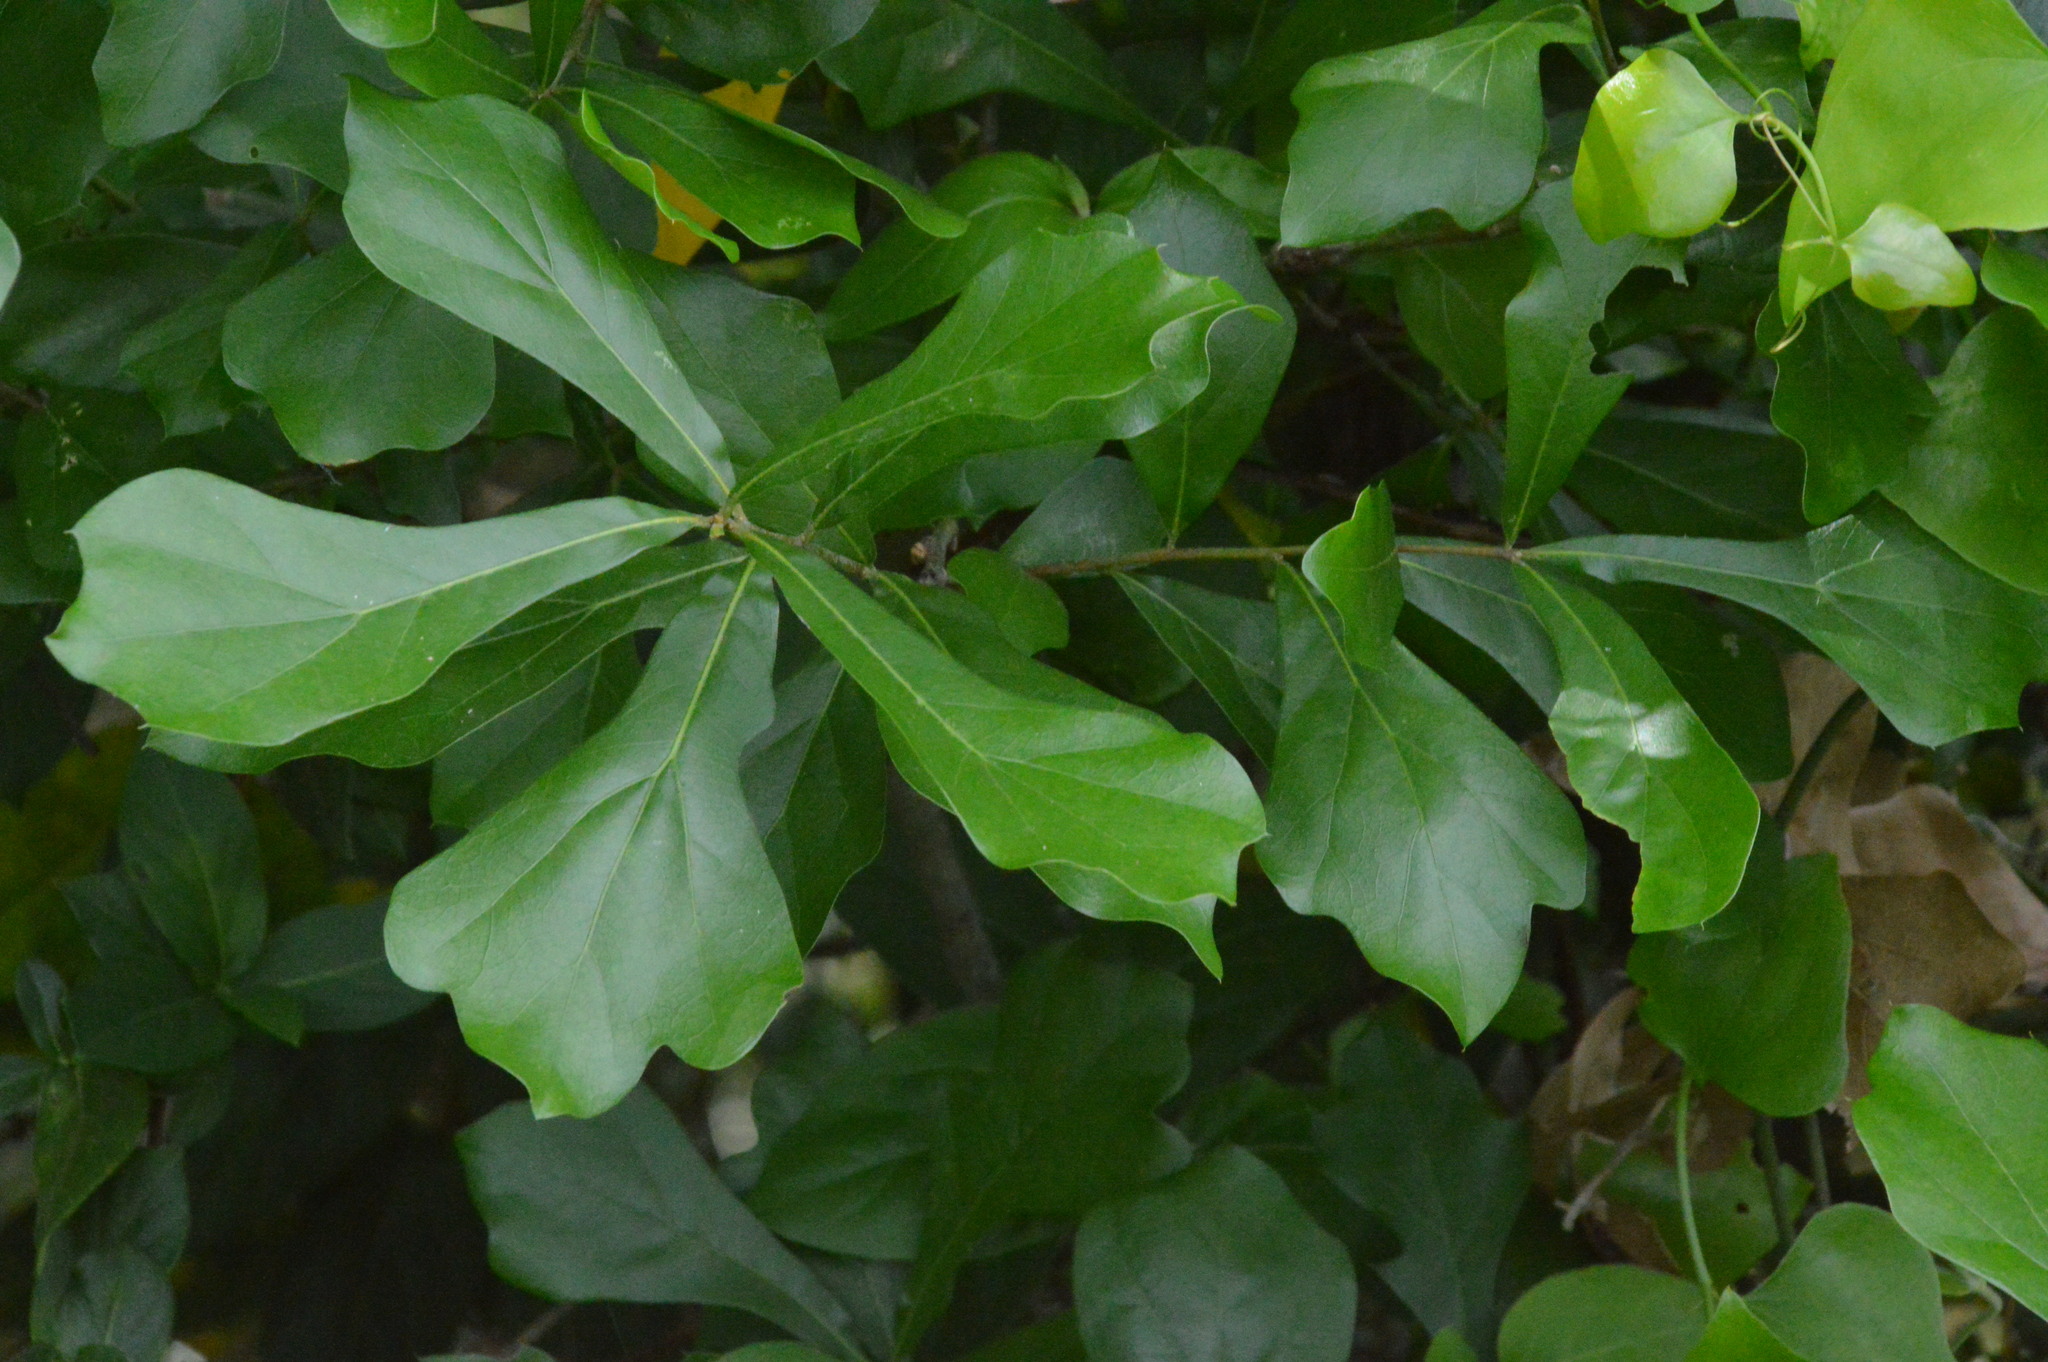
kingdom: Plantae
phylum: Tracheophyta
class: Magnoliopsida
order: Fagales
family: Fagaceae
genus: Quercus
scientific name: Quercus nigra
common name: Water oak
